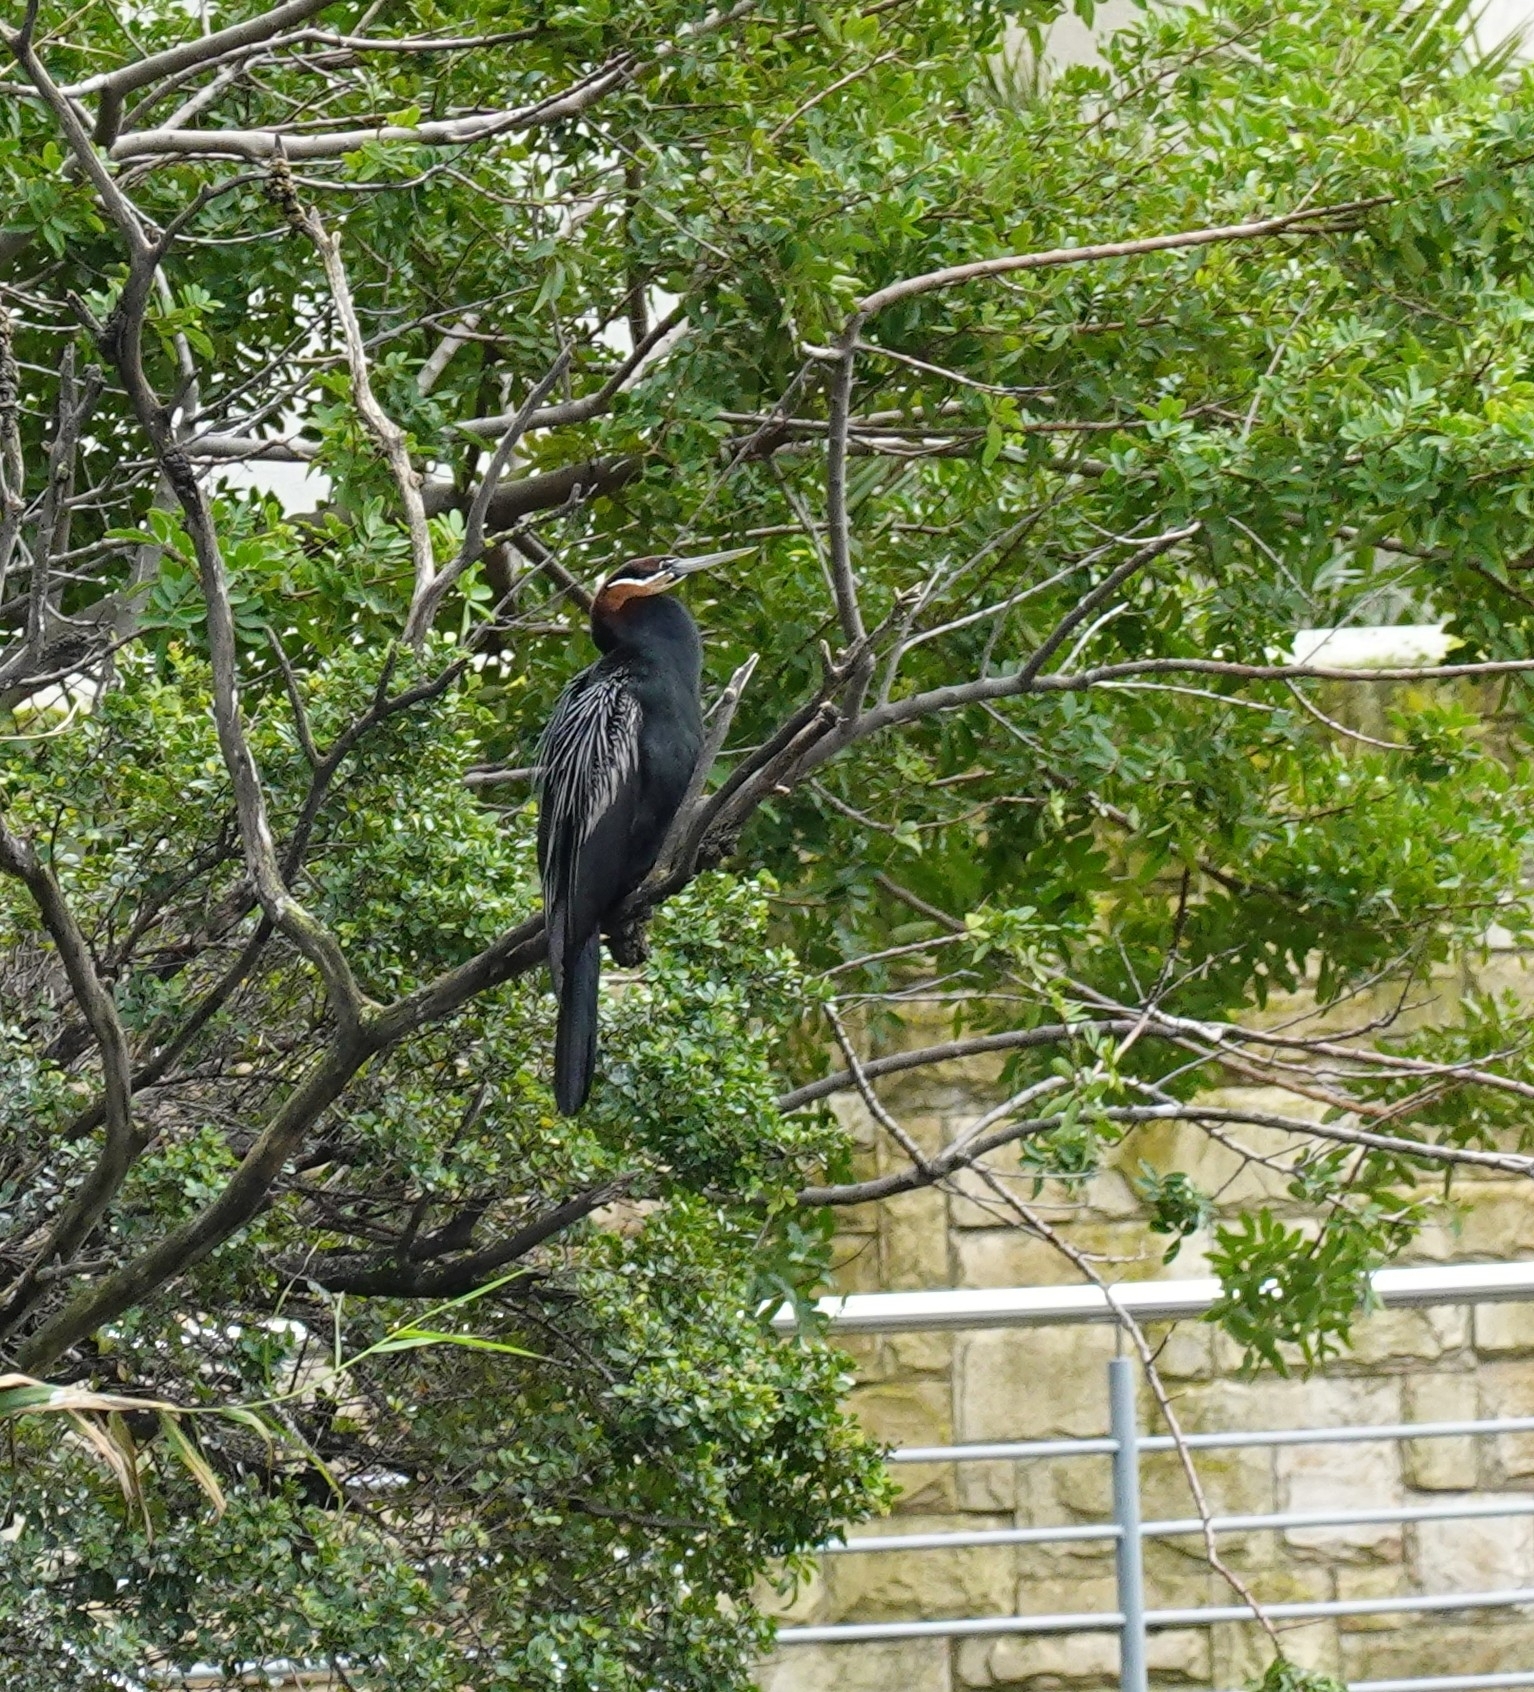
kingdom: Animalia
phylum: Chordata
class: Aves
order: Suliformes
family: Anhingidae
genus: Anhinga
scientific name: Anhinga rufa
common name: African darter
